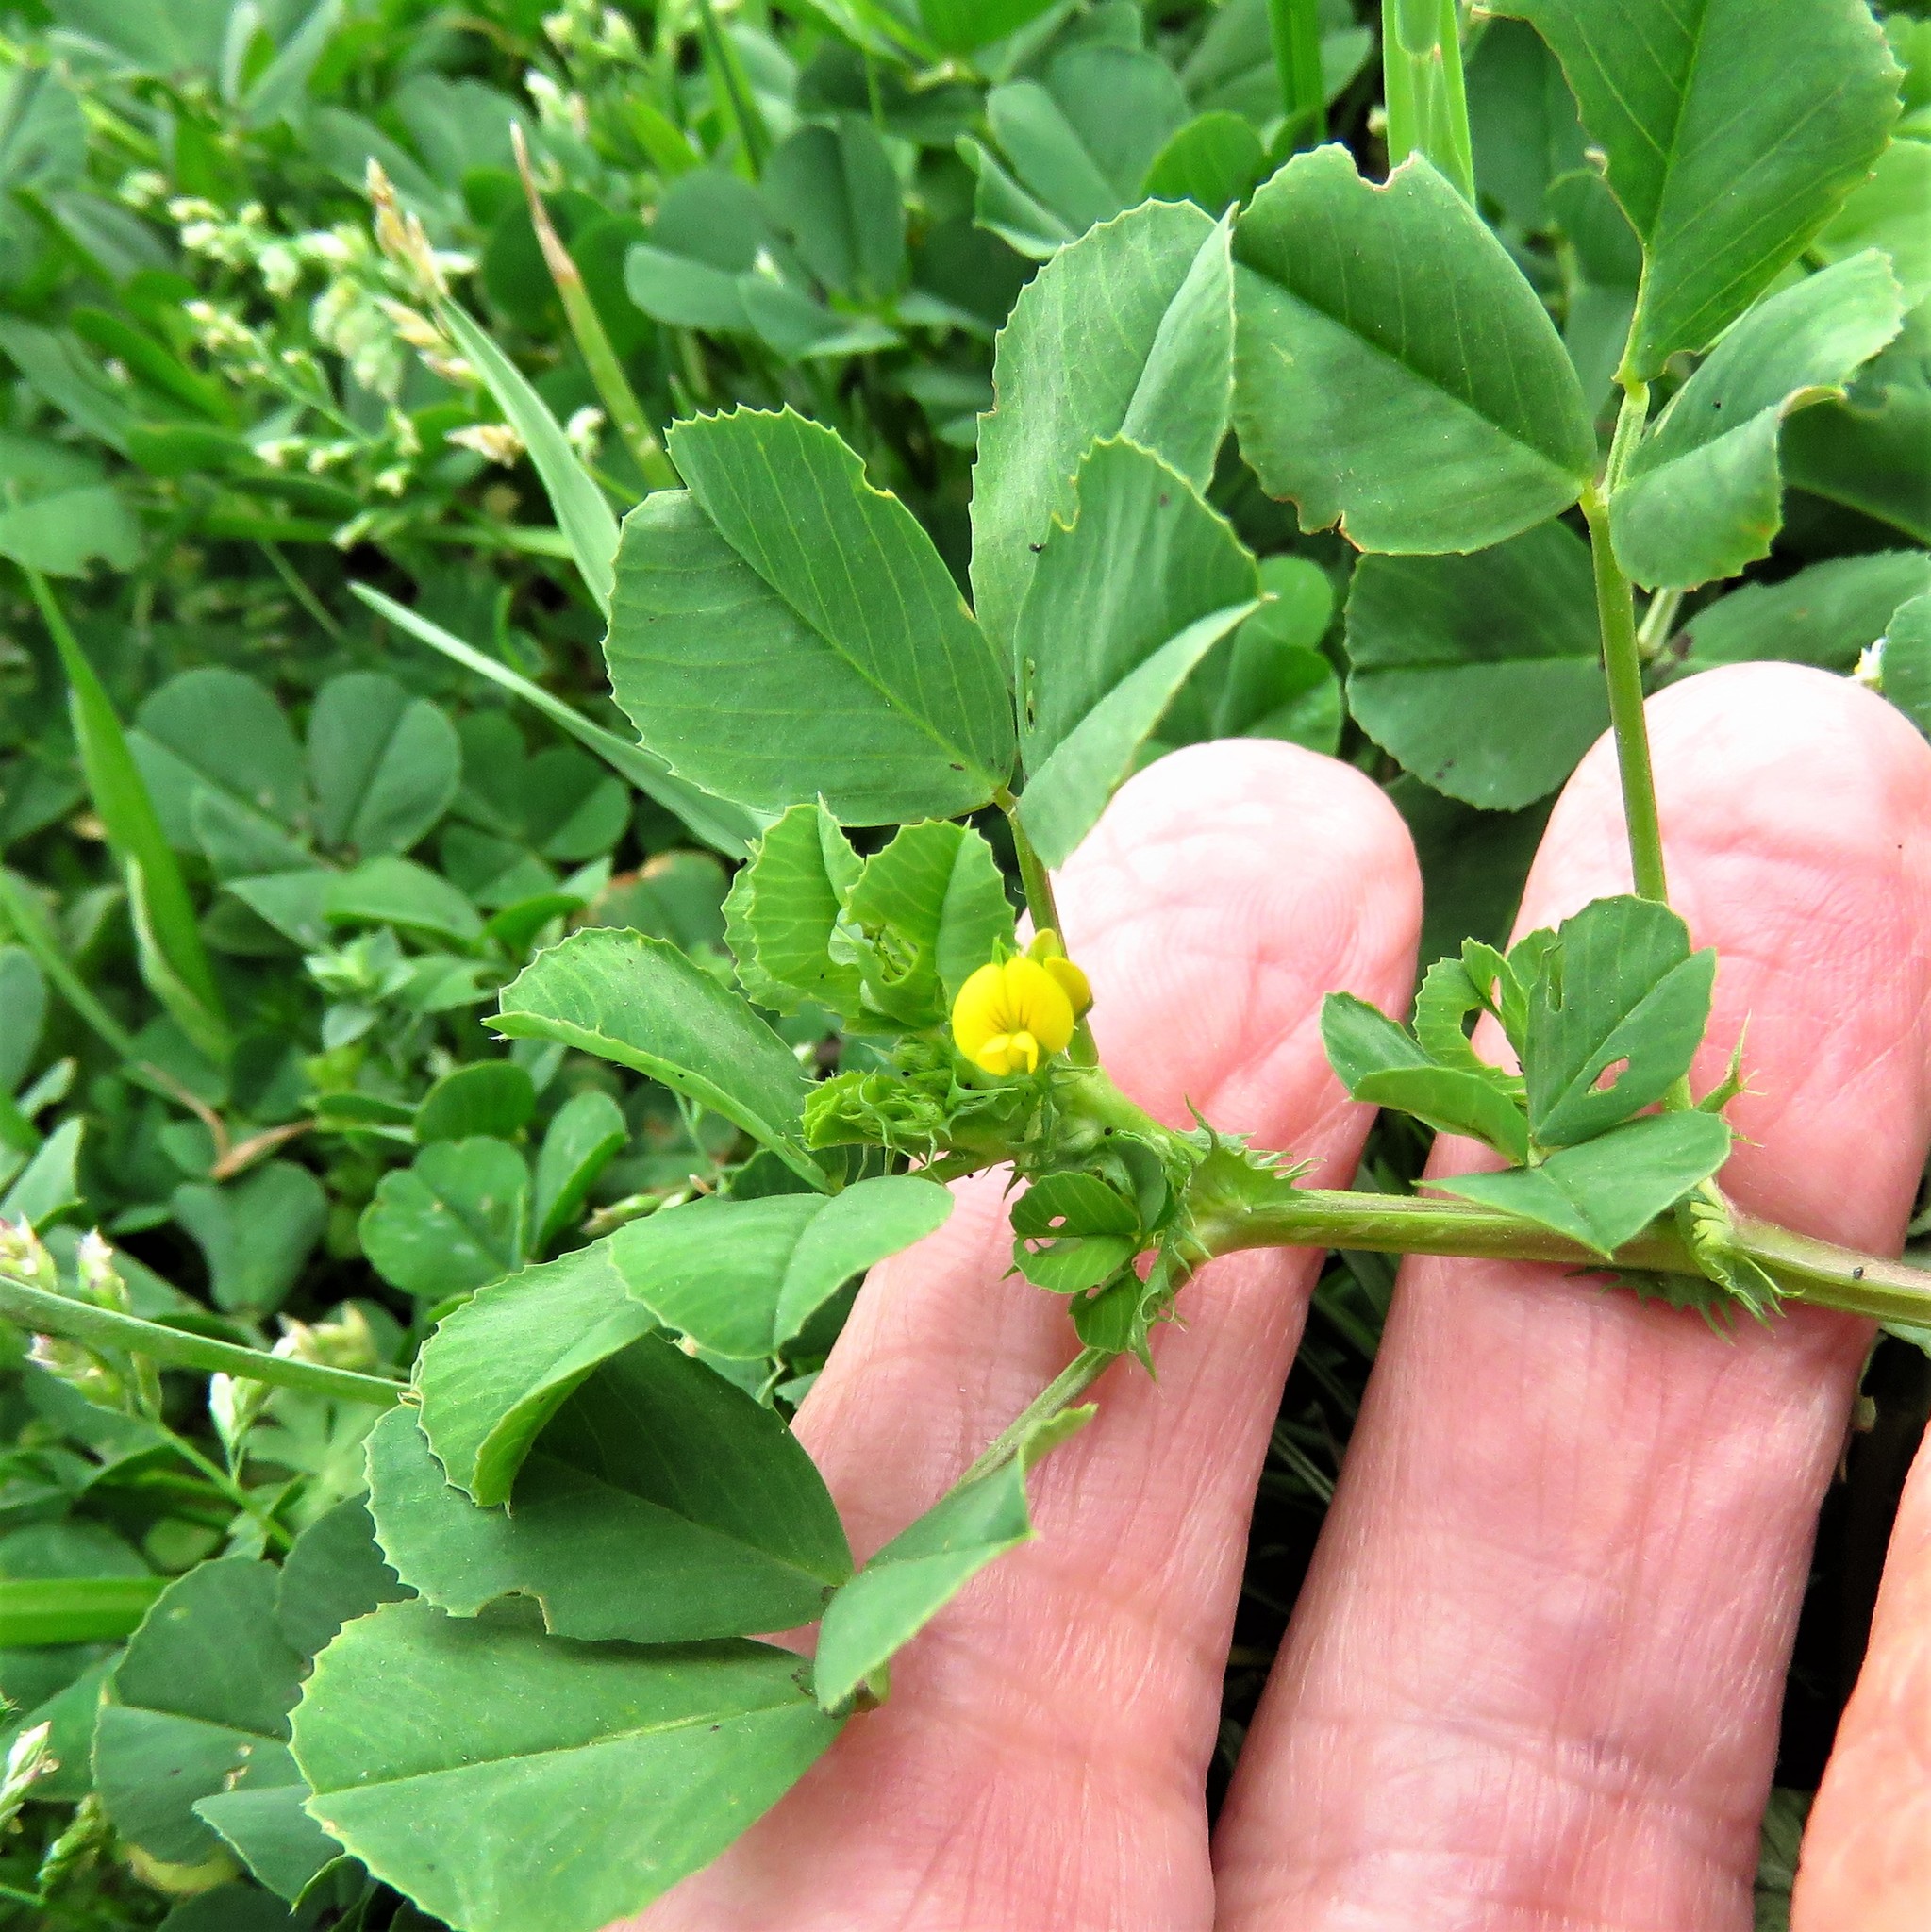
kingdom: Plantae
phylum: Tracheophyta
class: Magnoliopsida
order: Fabales
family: Fabaceae
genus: Medicago
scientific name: Medicago polymorpha
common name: Burclover
